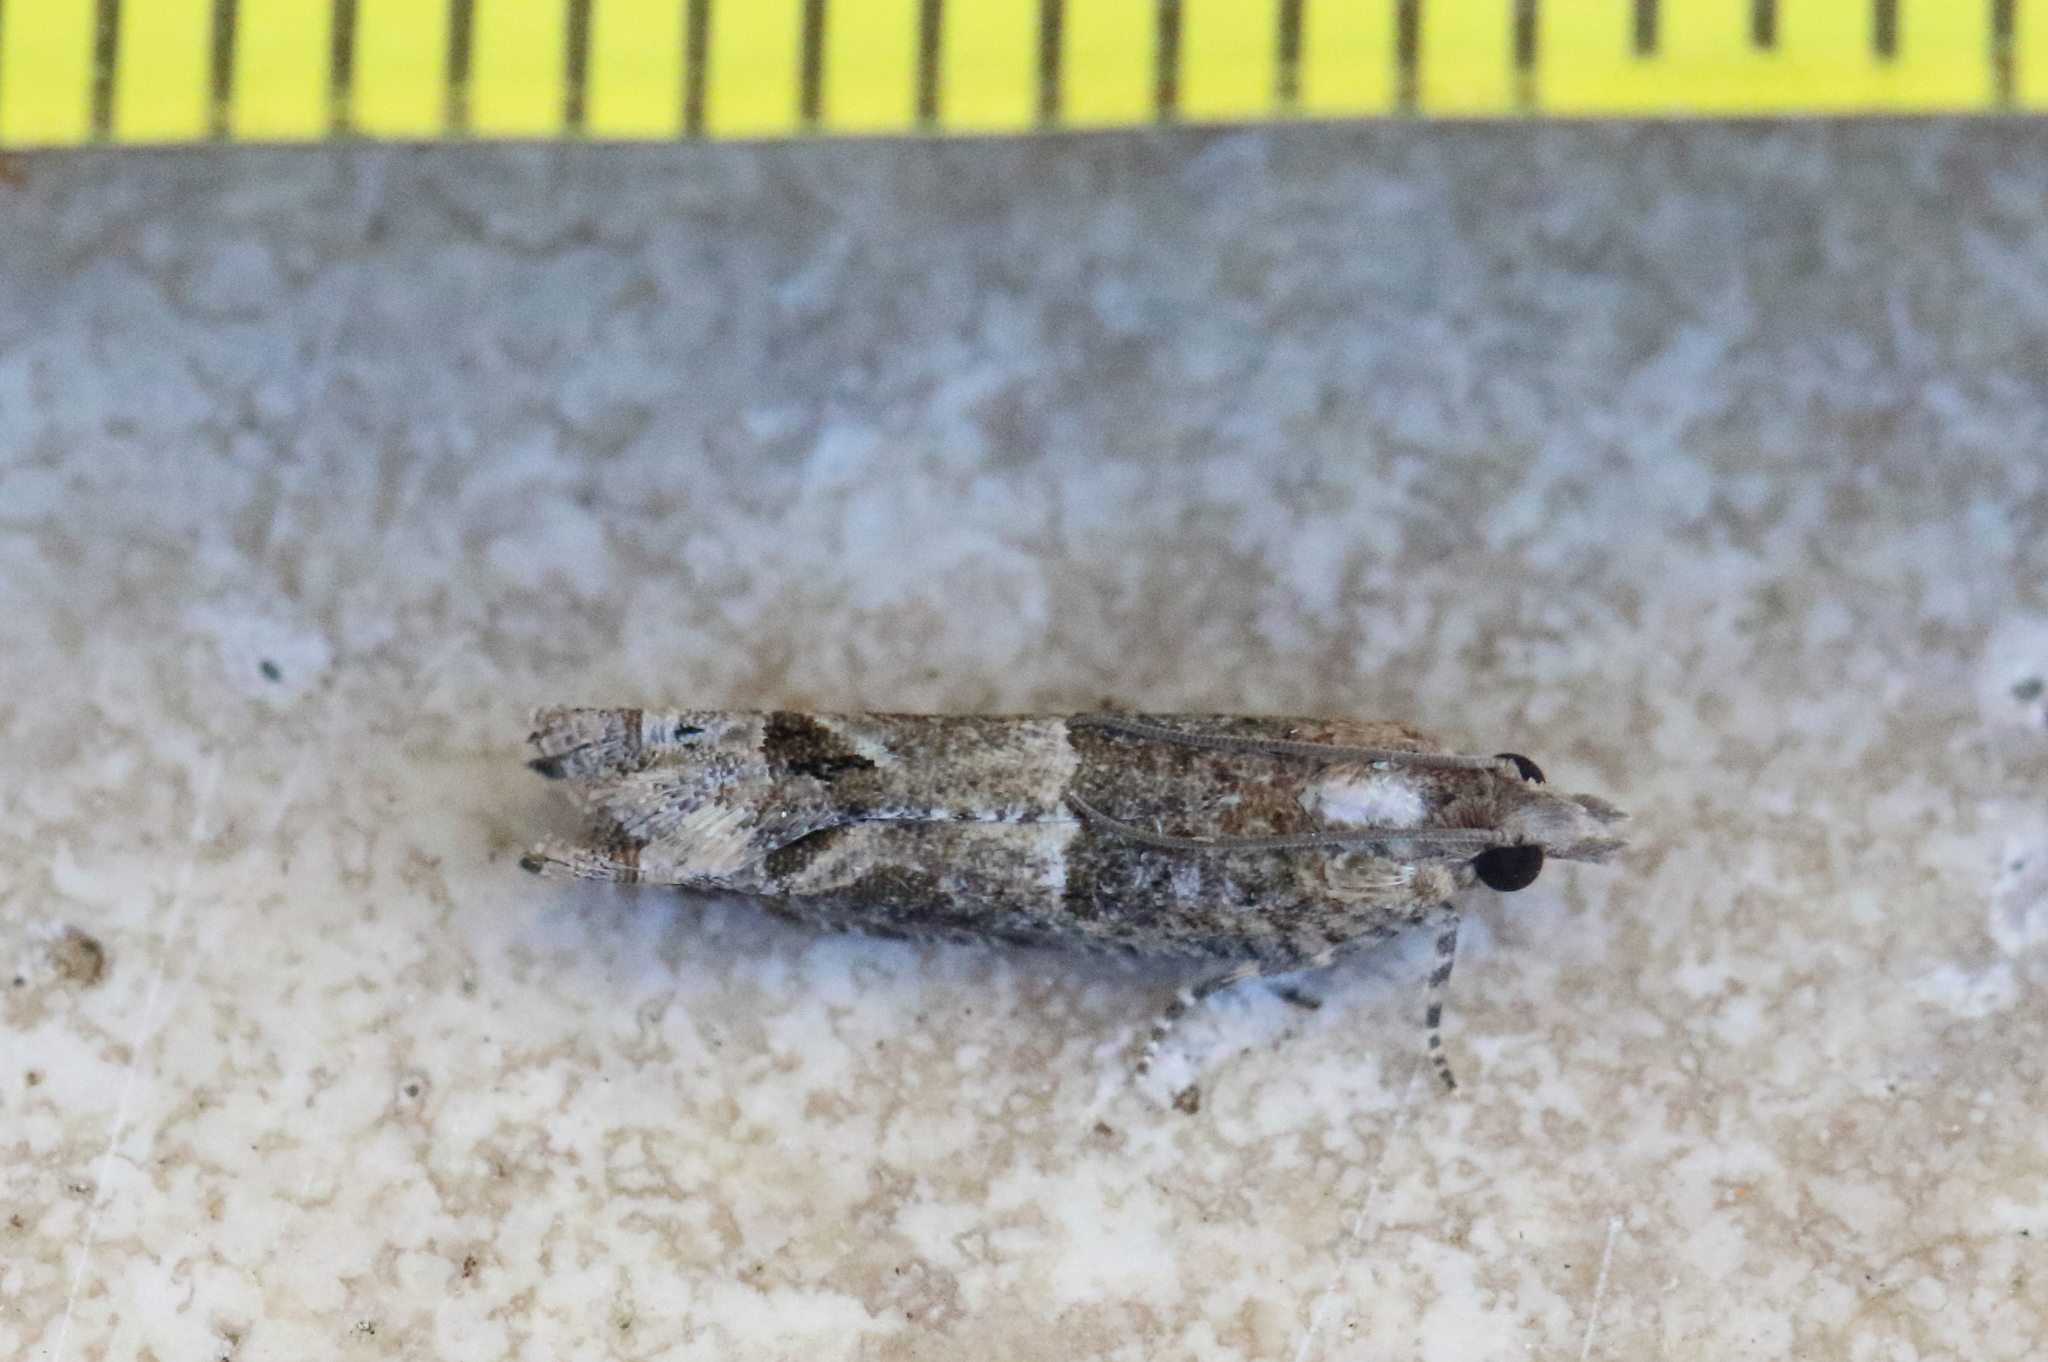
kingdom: Animalia
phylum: Arthropoda
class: Insecta
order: Lepidoptera
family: Tortricidae
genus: Crocidosema
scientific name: Crocidosema plebejana
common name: Southern bell
